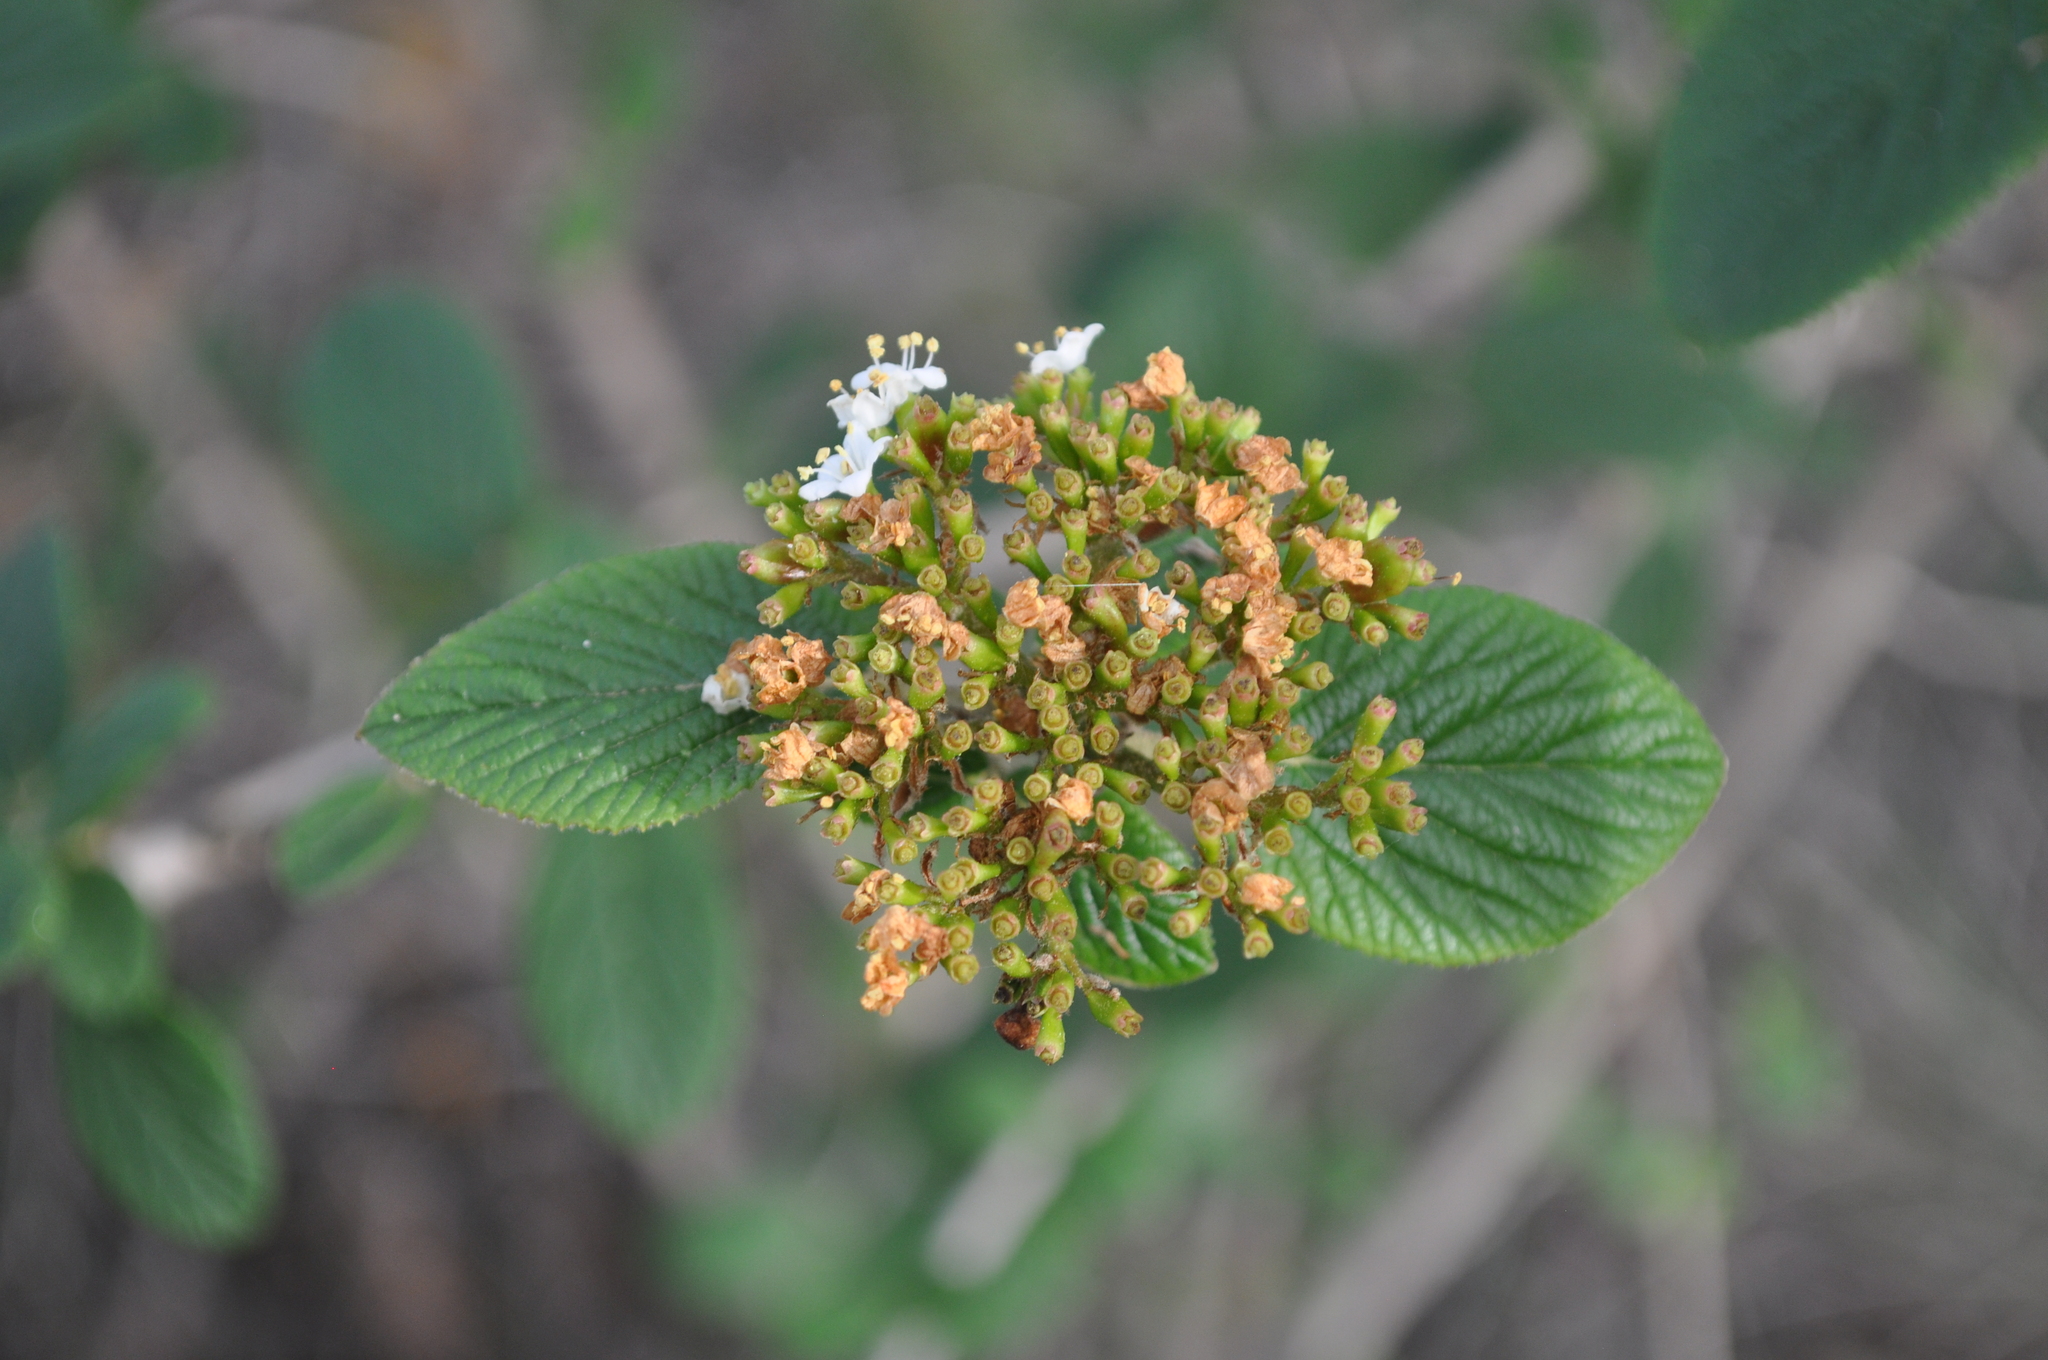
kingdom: Plantae
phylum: Tracheophyta
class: Magnoliopsida
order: Dipsacales
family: Viburnaceae
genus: Viburnum
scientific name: Viburnum lantana
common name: Wayfaring tree
